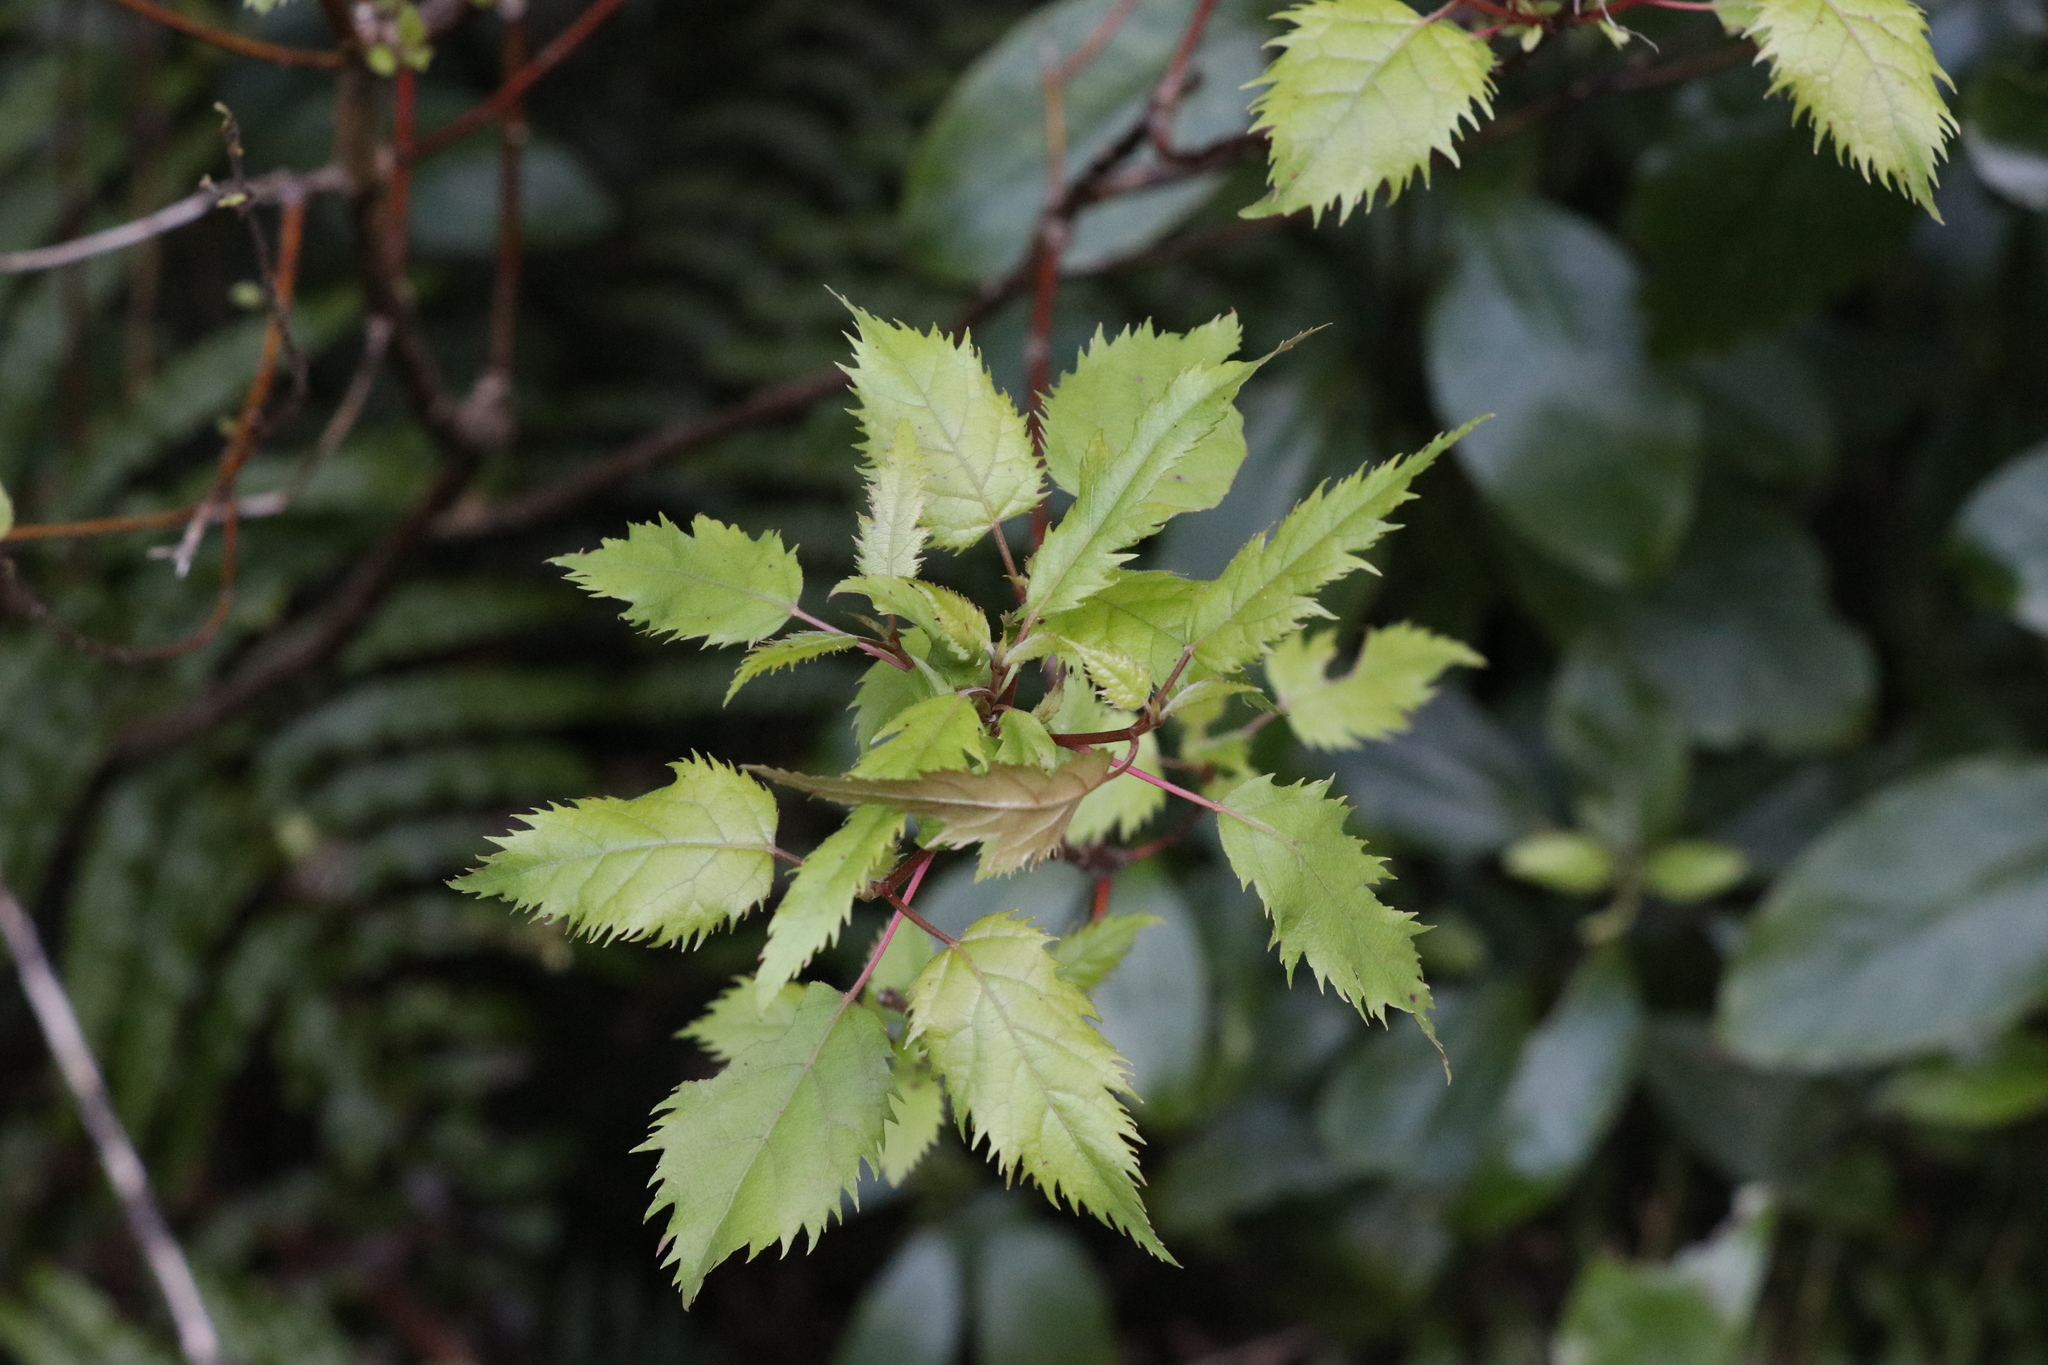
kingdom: Plantae
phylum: Tracheophyta
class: Magnoliopsida
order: Oxalidales
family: Elaeocarpaceae
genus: Aristotelia
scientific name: Aristotelia serrata
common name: New zealand wineberry
